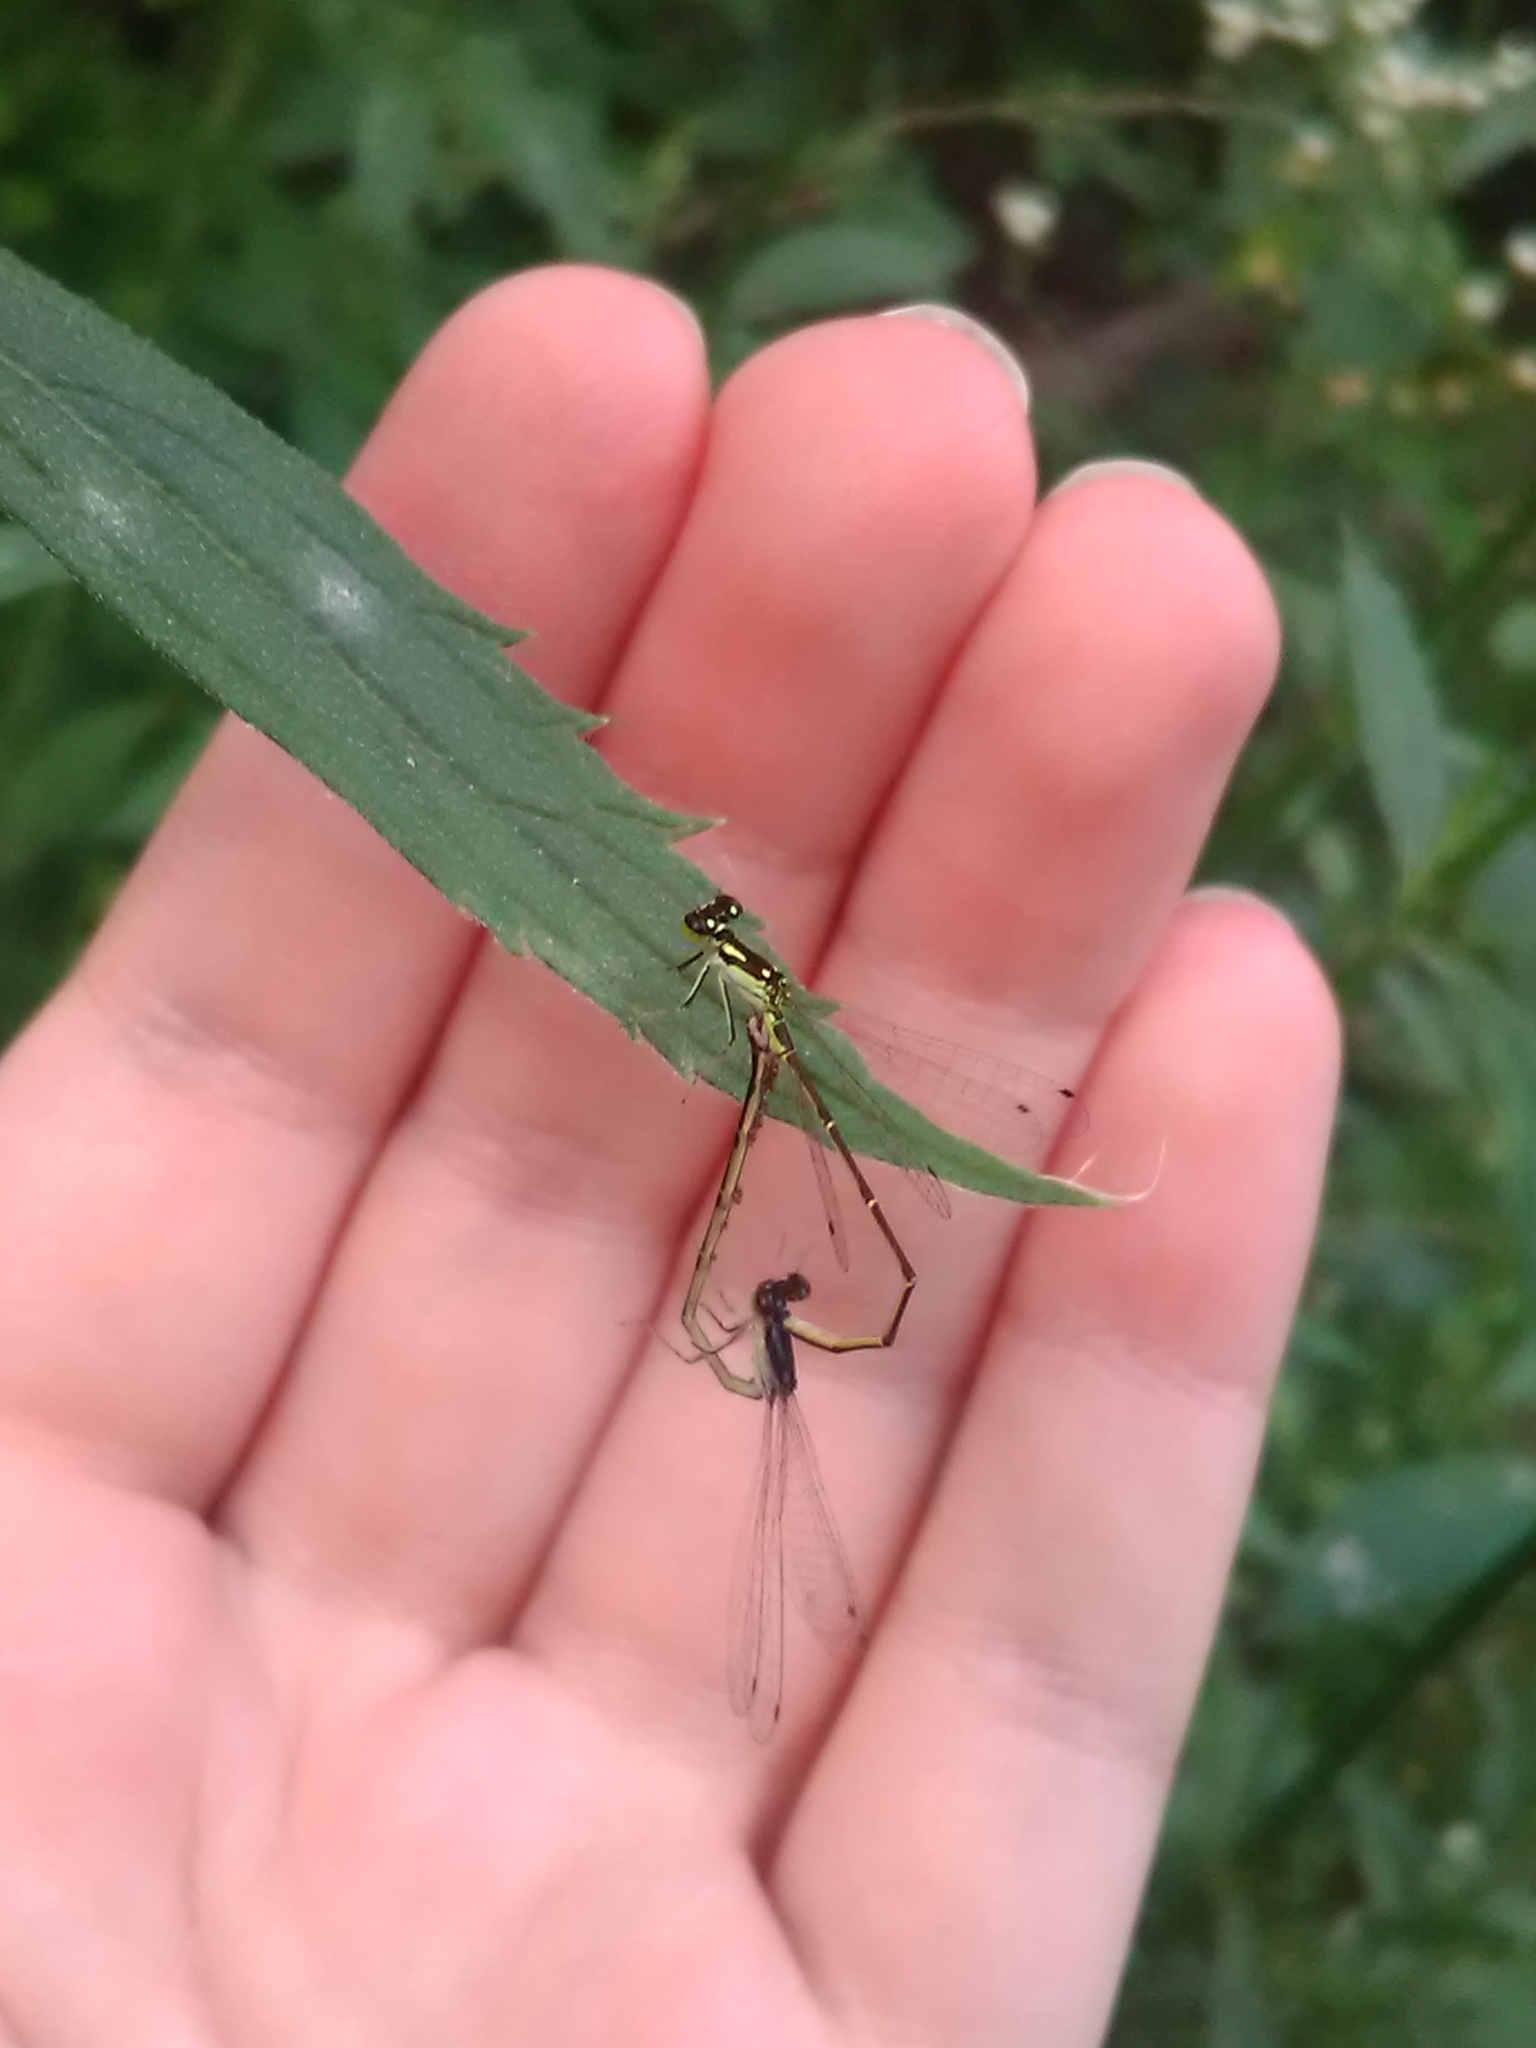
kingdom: Animalia
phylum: Arthropoda
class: Insecta
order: Odonata
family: Coenagrionidae
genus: Ischnura
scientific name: Ischnura posita
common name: Fragile forktail
